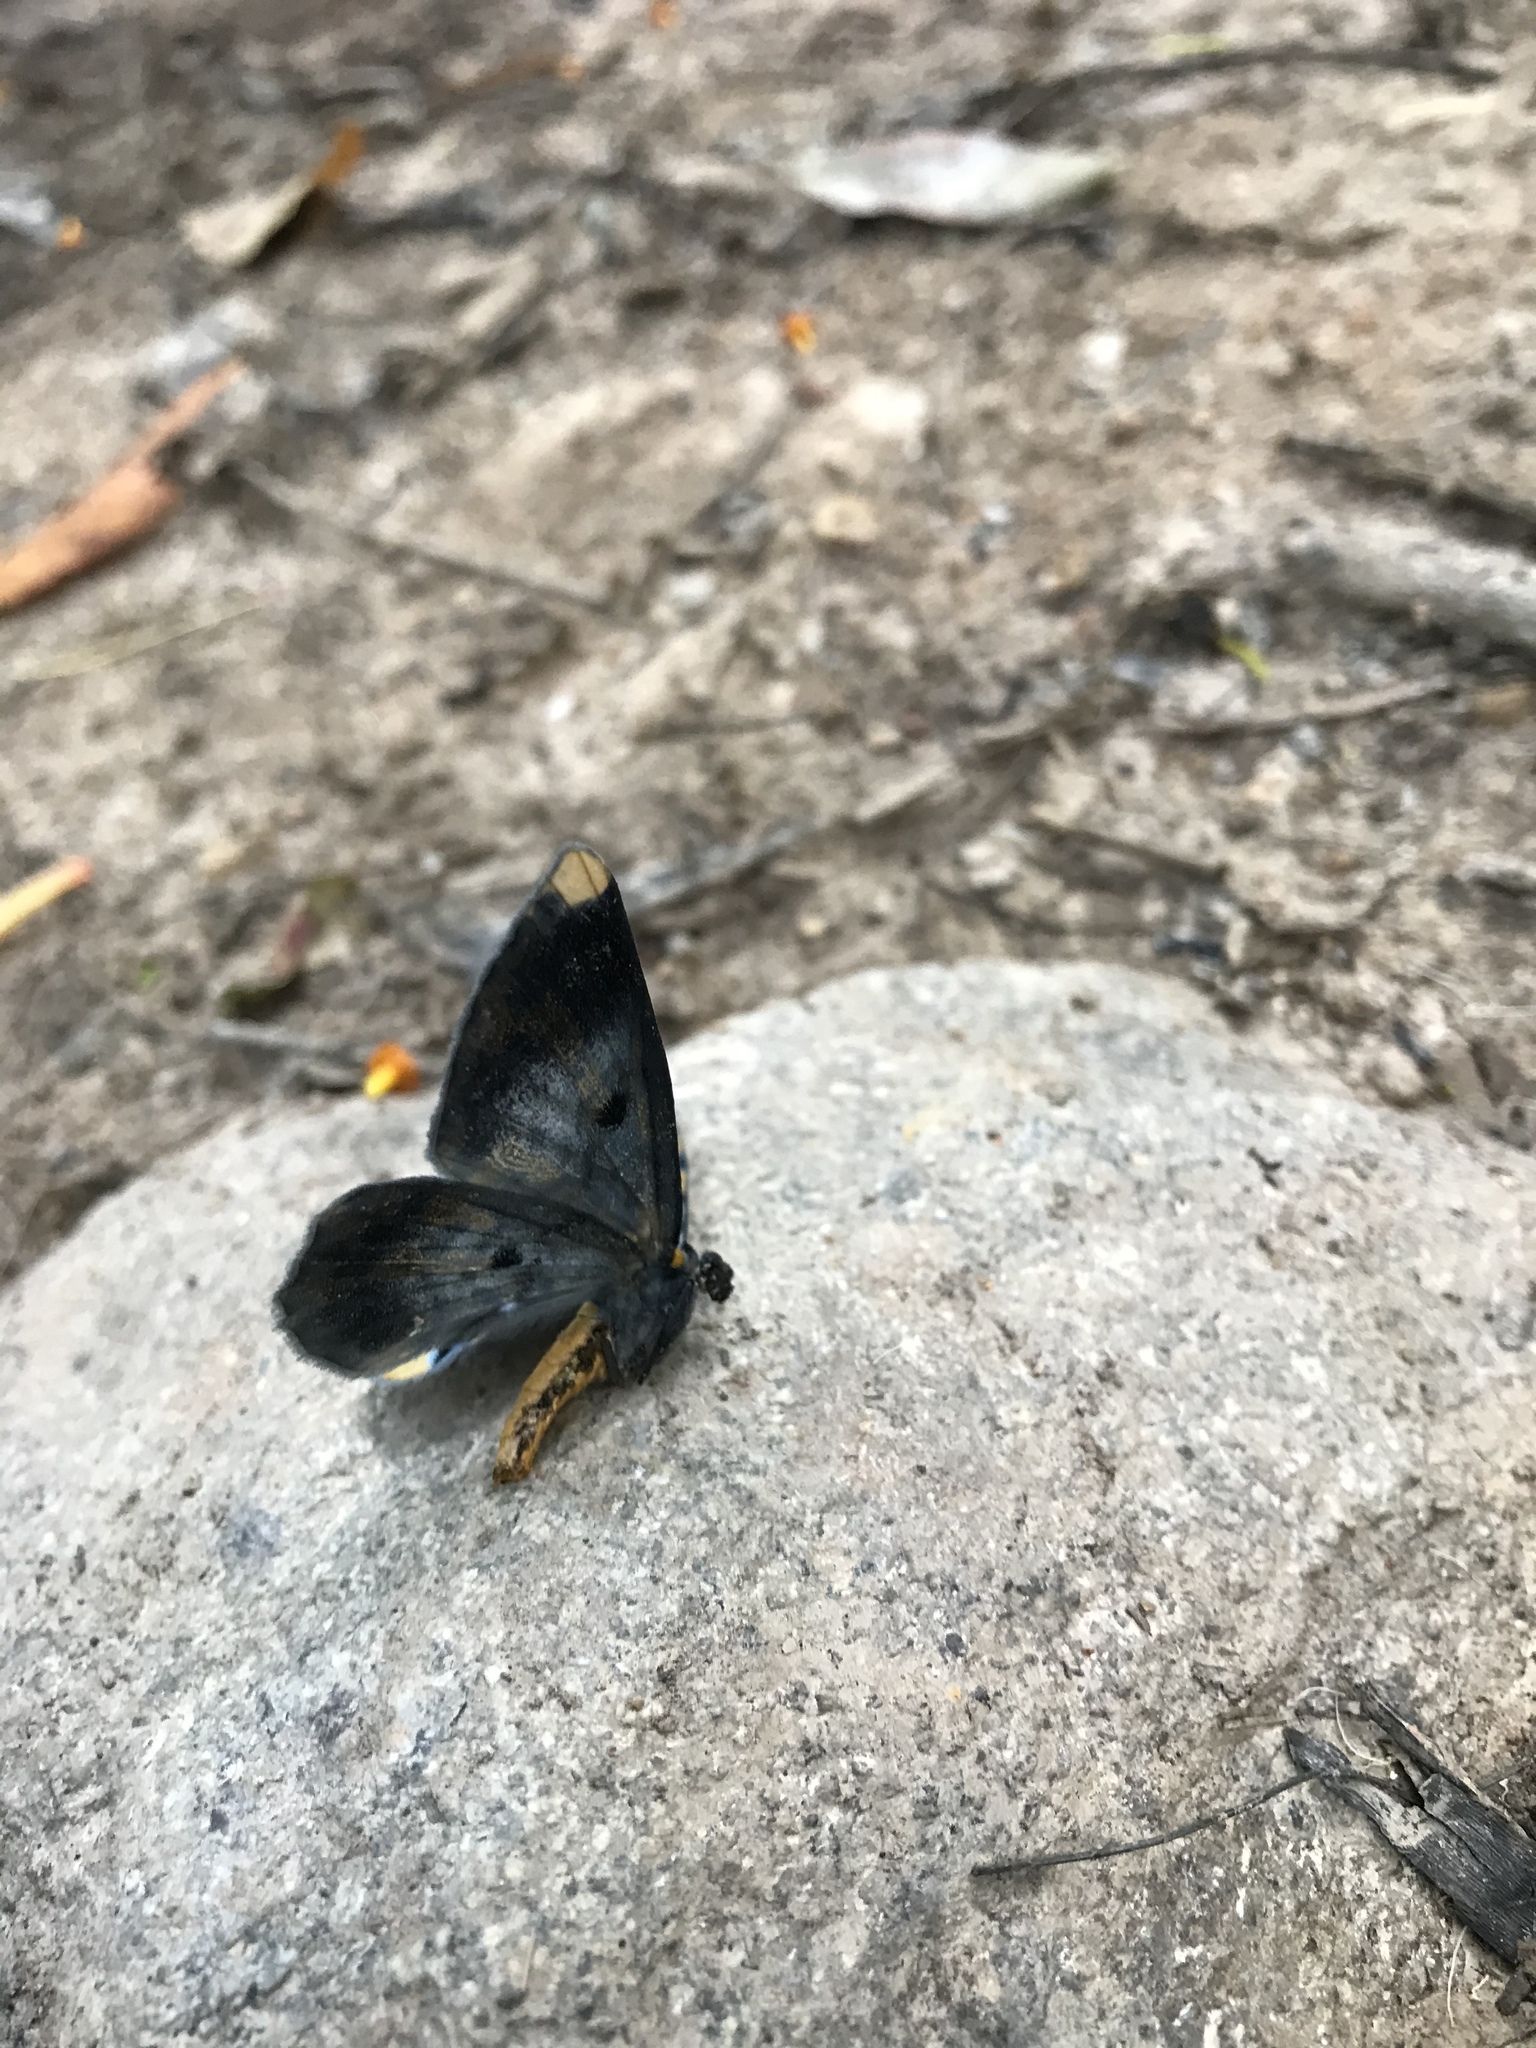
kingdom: Animalia
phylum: Arthropoda
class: Insecta
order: Lepidoptera
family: Geometridae
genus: Bracca
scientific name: Bracca matutinata
